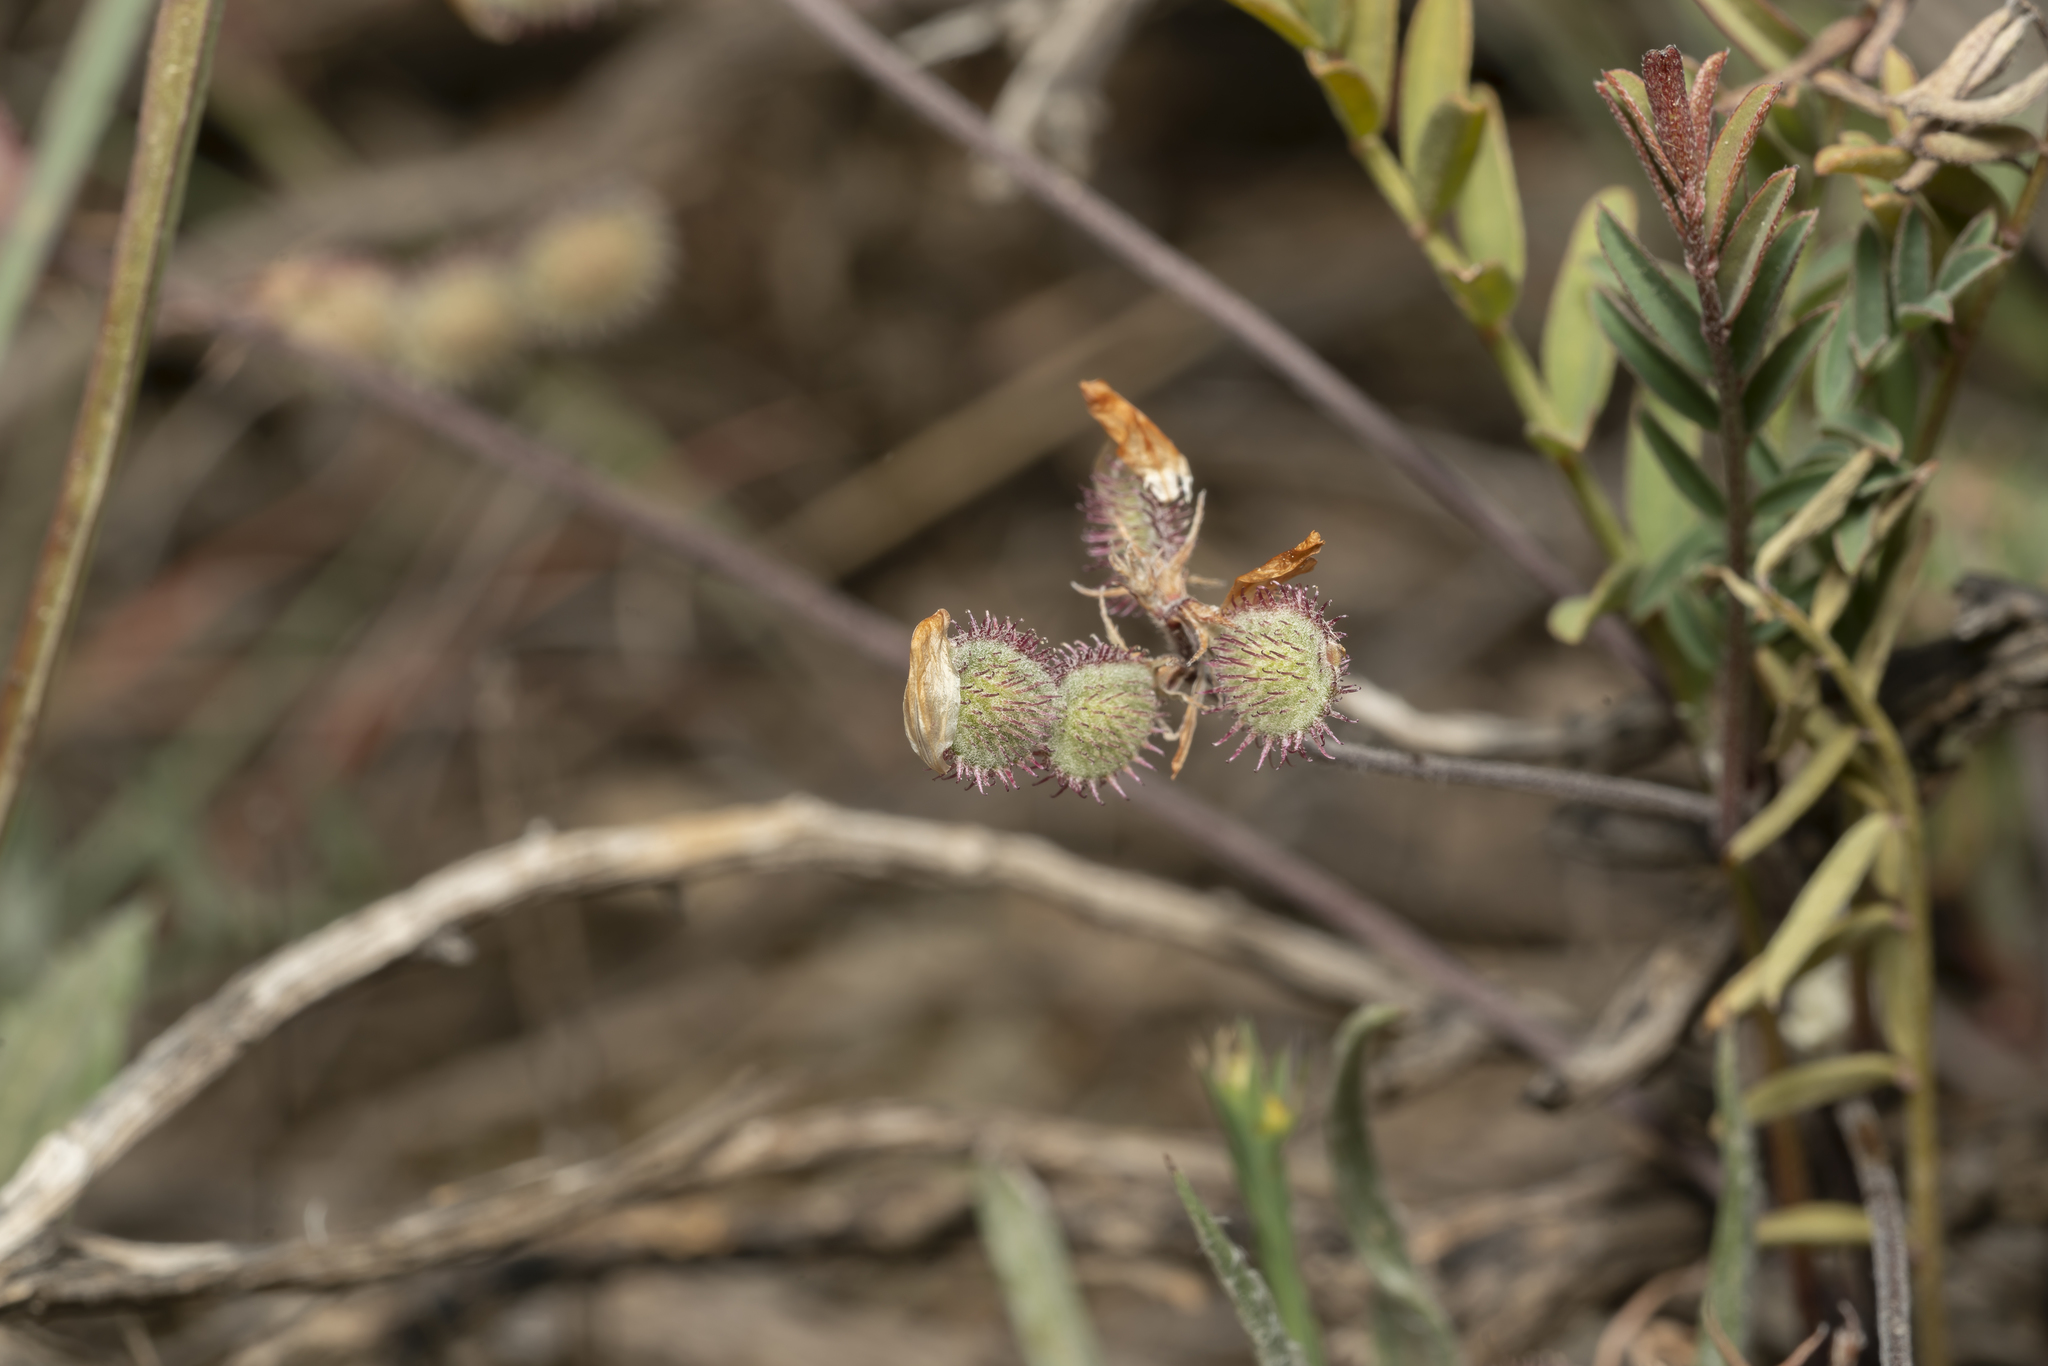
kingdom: Plantae
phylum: Tracheophyta
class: Magnoliopsida
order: Fabales
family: Fabaceae
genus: Sulla
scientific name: Sulla spinosissima
